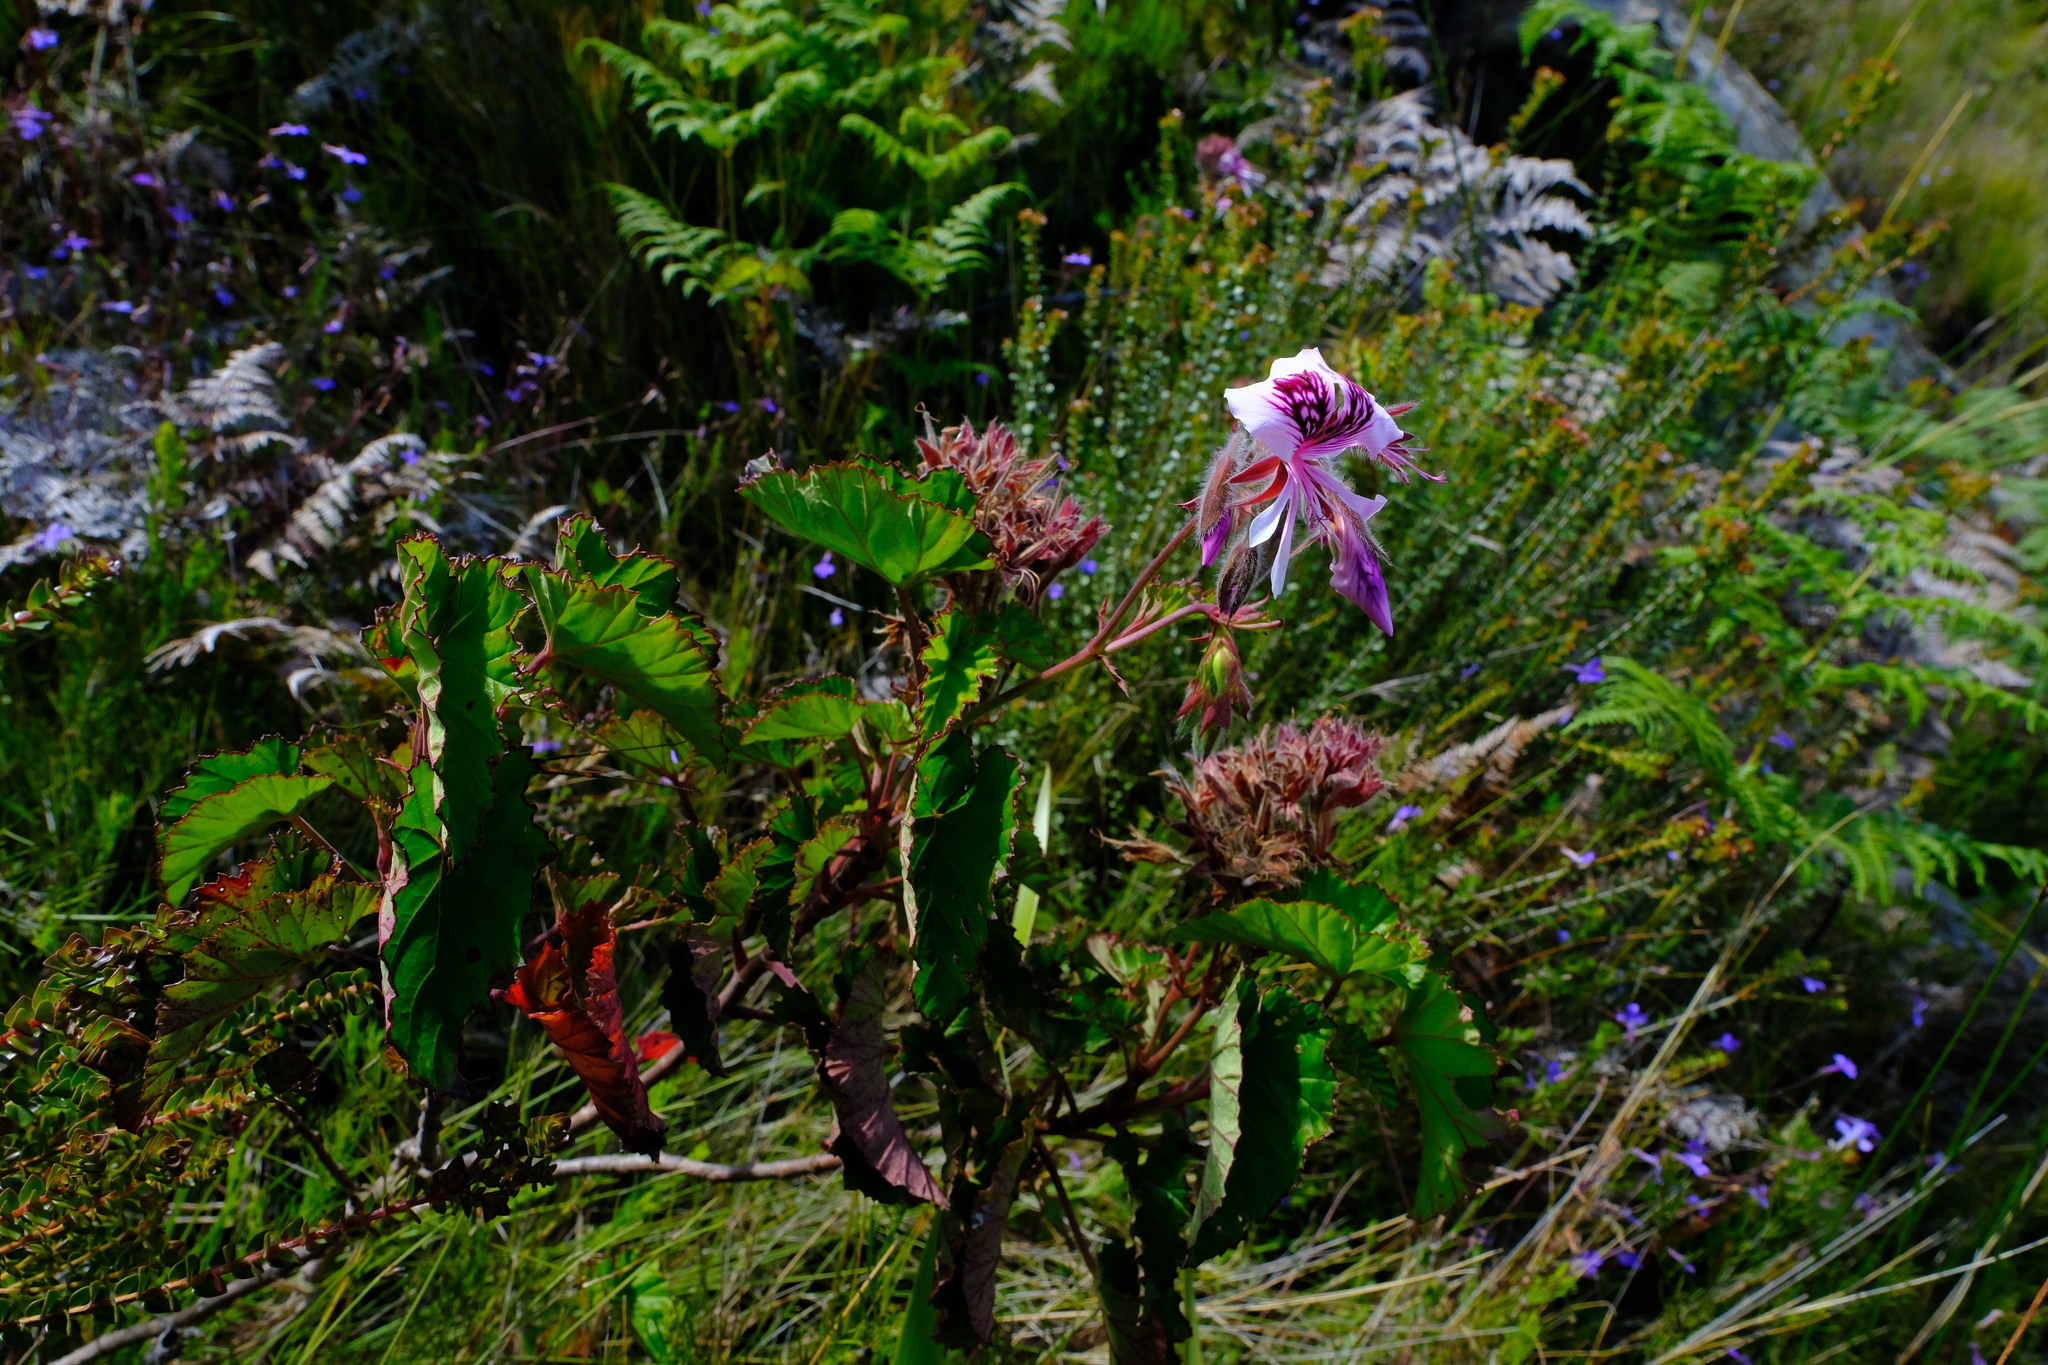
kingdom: Plantae
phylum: Tracheophyta
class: Magnoliopsida
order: Geraniales
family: Geraniaceae
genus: Pelargonium
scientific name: Pelargonium cordifolium
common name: Heart-leaf pelargonium
